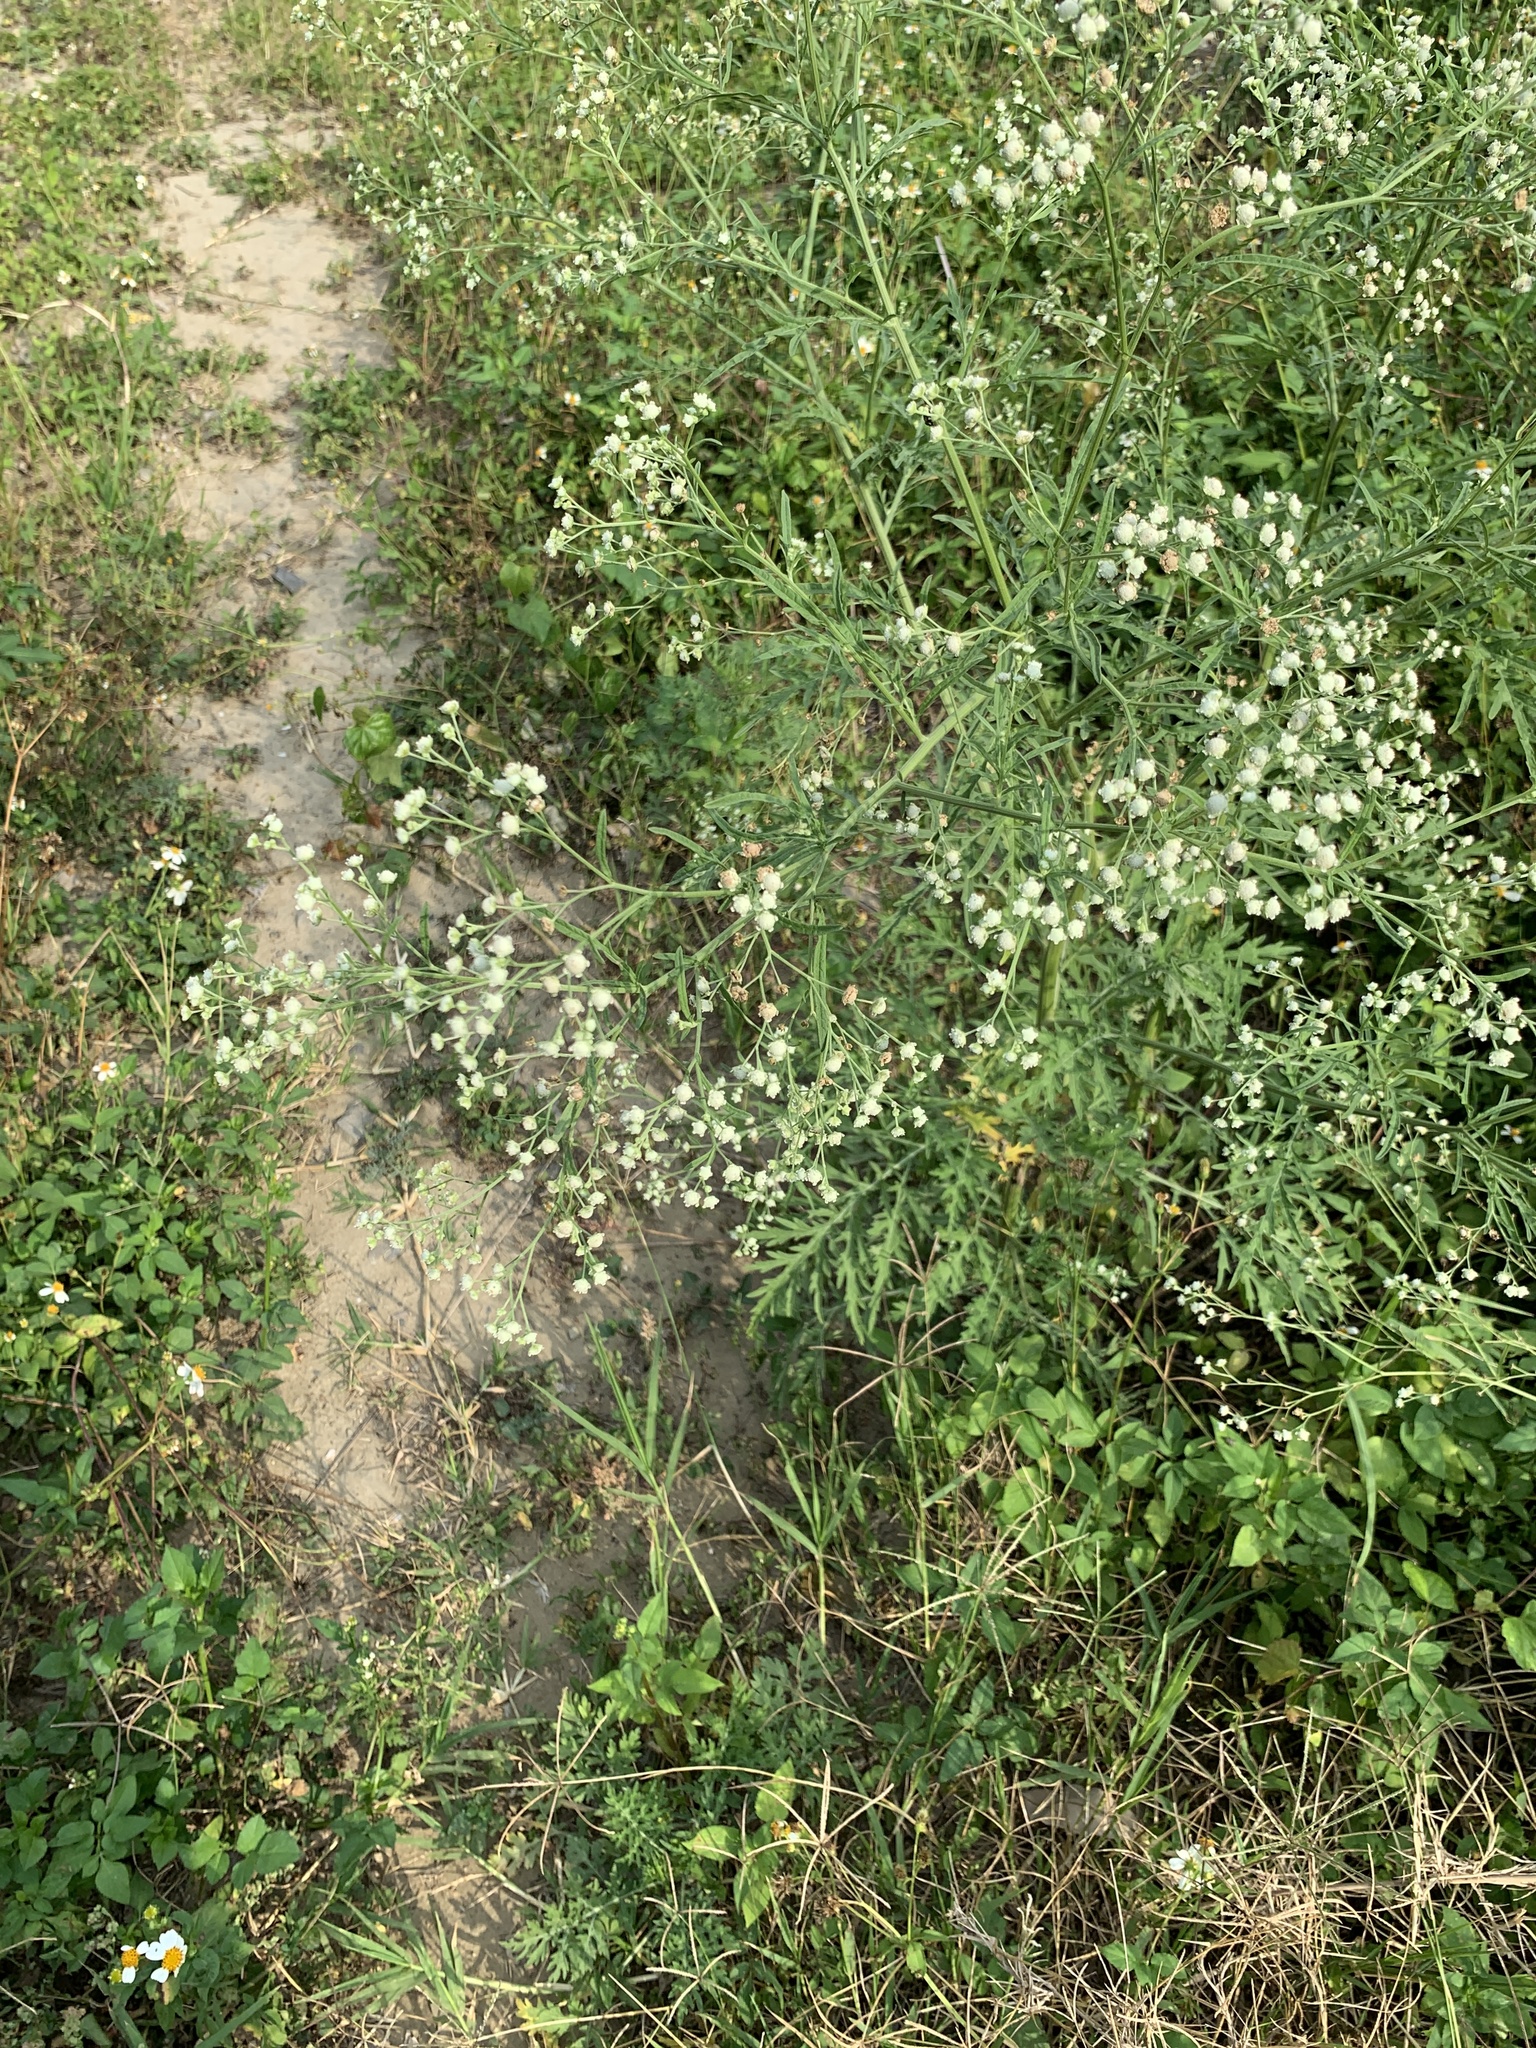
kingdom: Plantae
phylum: Tracheophyta
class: Magnoliopsida
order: Asterales
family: Asteraceae
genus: Parthenium
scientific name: Parthenium hysterophorus
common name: Santa maria feverfew
